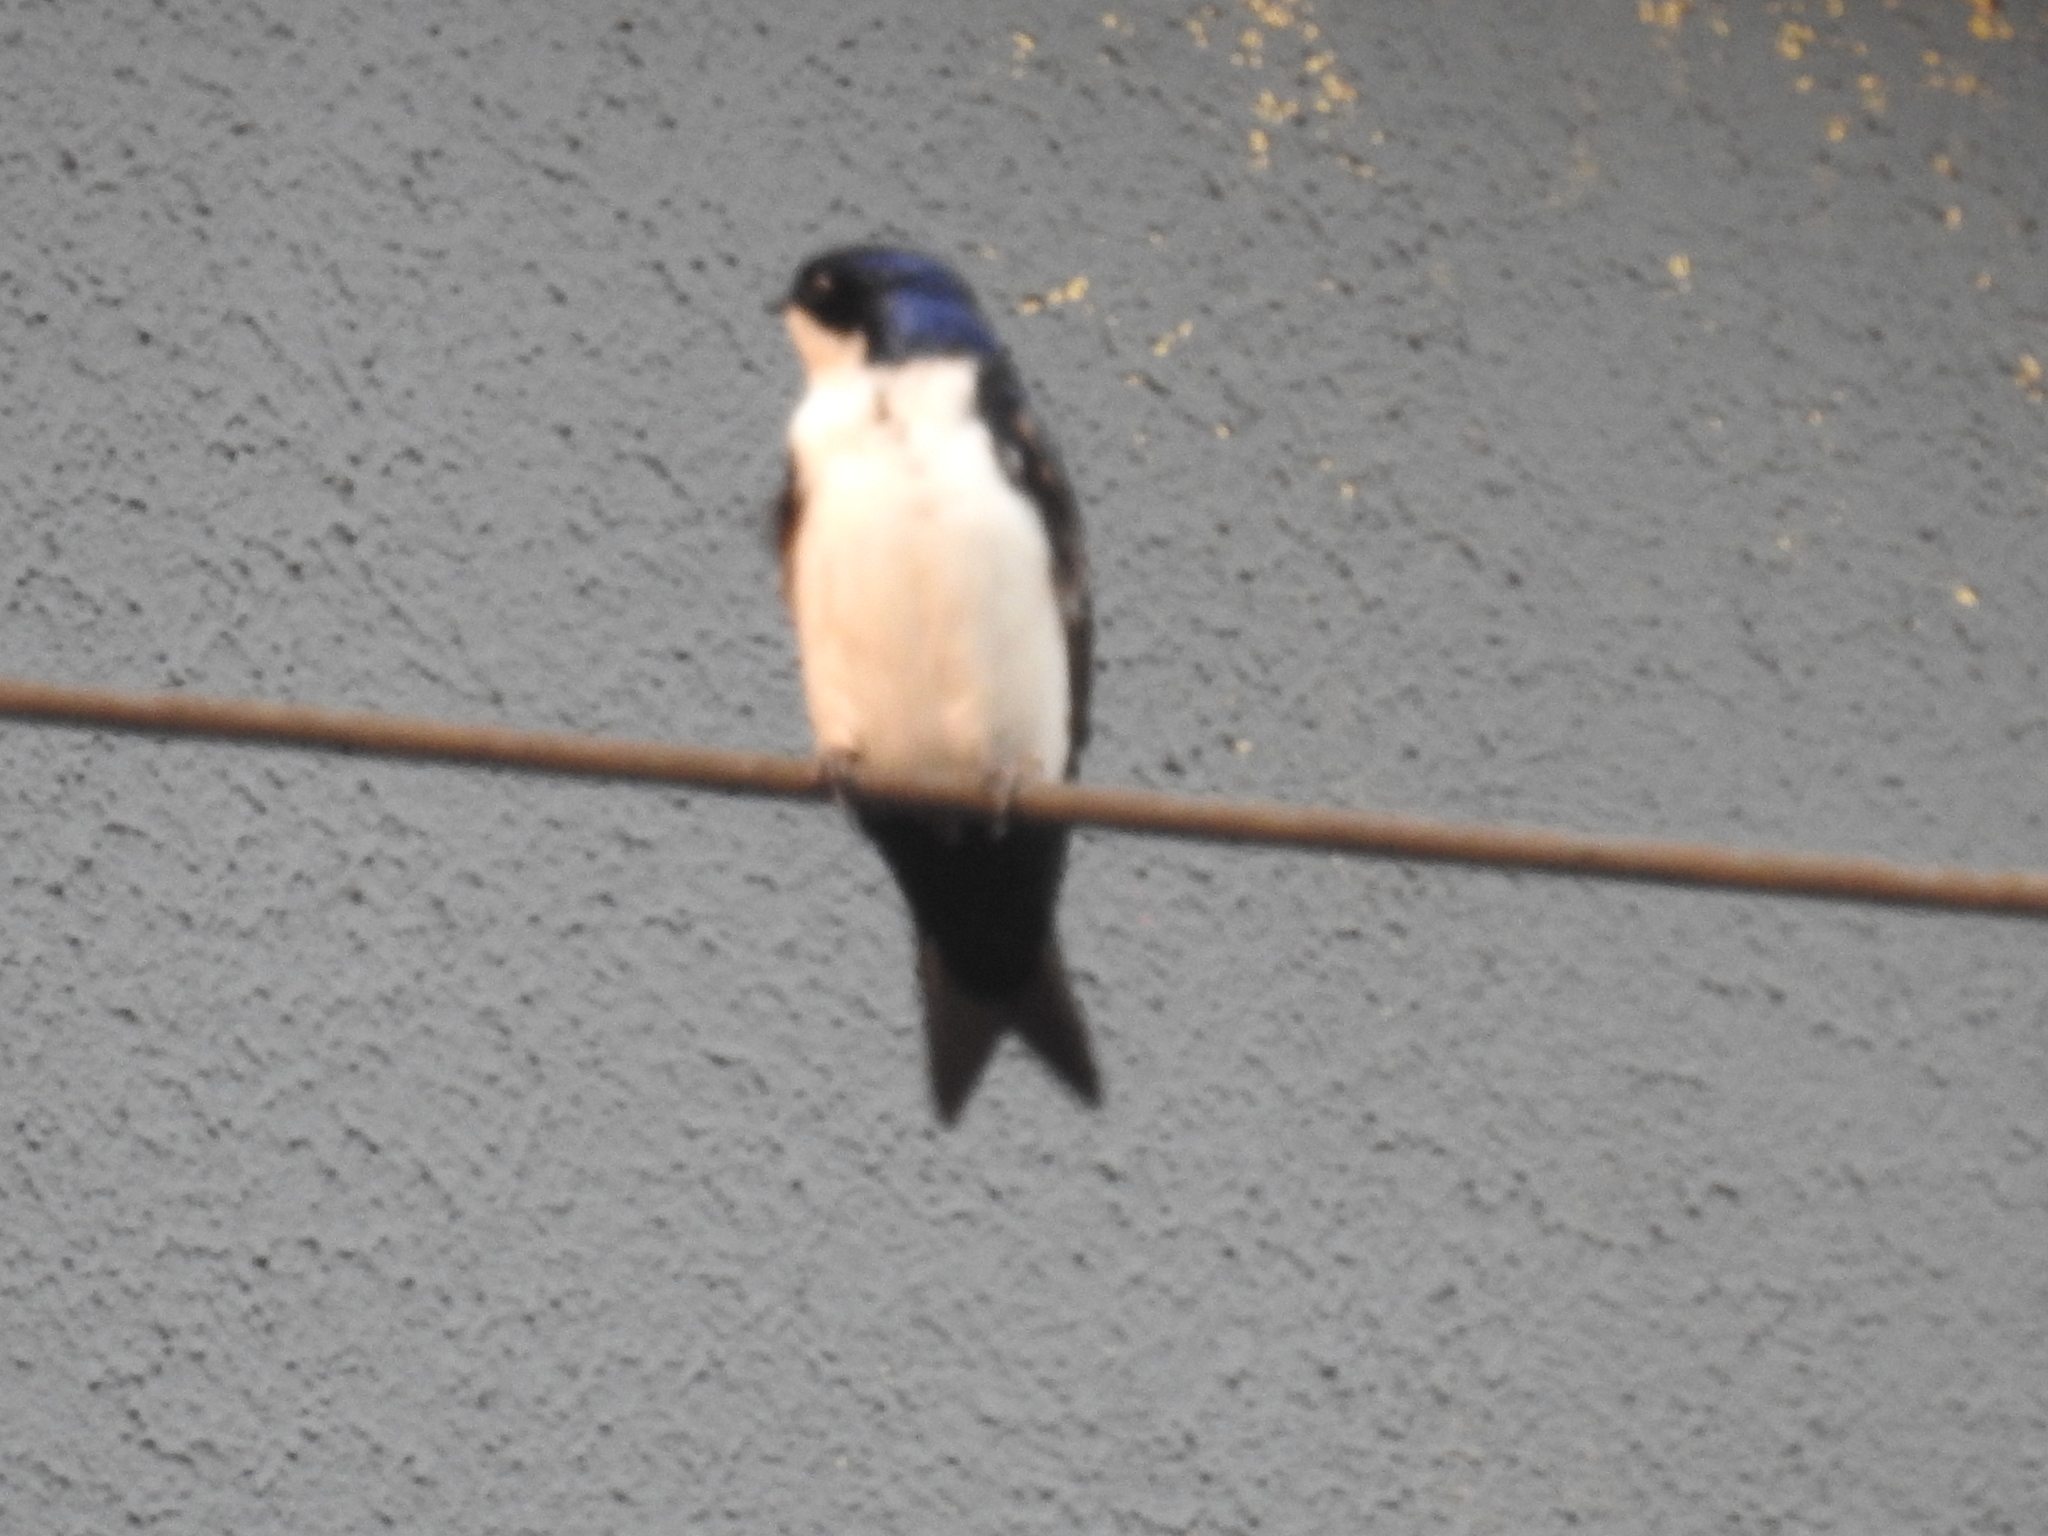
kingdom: Animalia
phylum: Chordata
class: Aves
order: Passeriformes
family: Hirundinidae
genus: Notiochelidon
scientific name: Notiochelidon cyanoleuca
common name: Blue-and-white swallow
